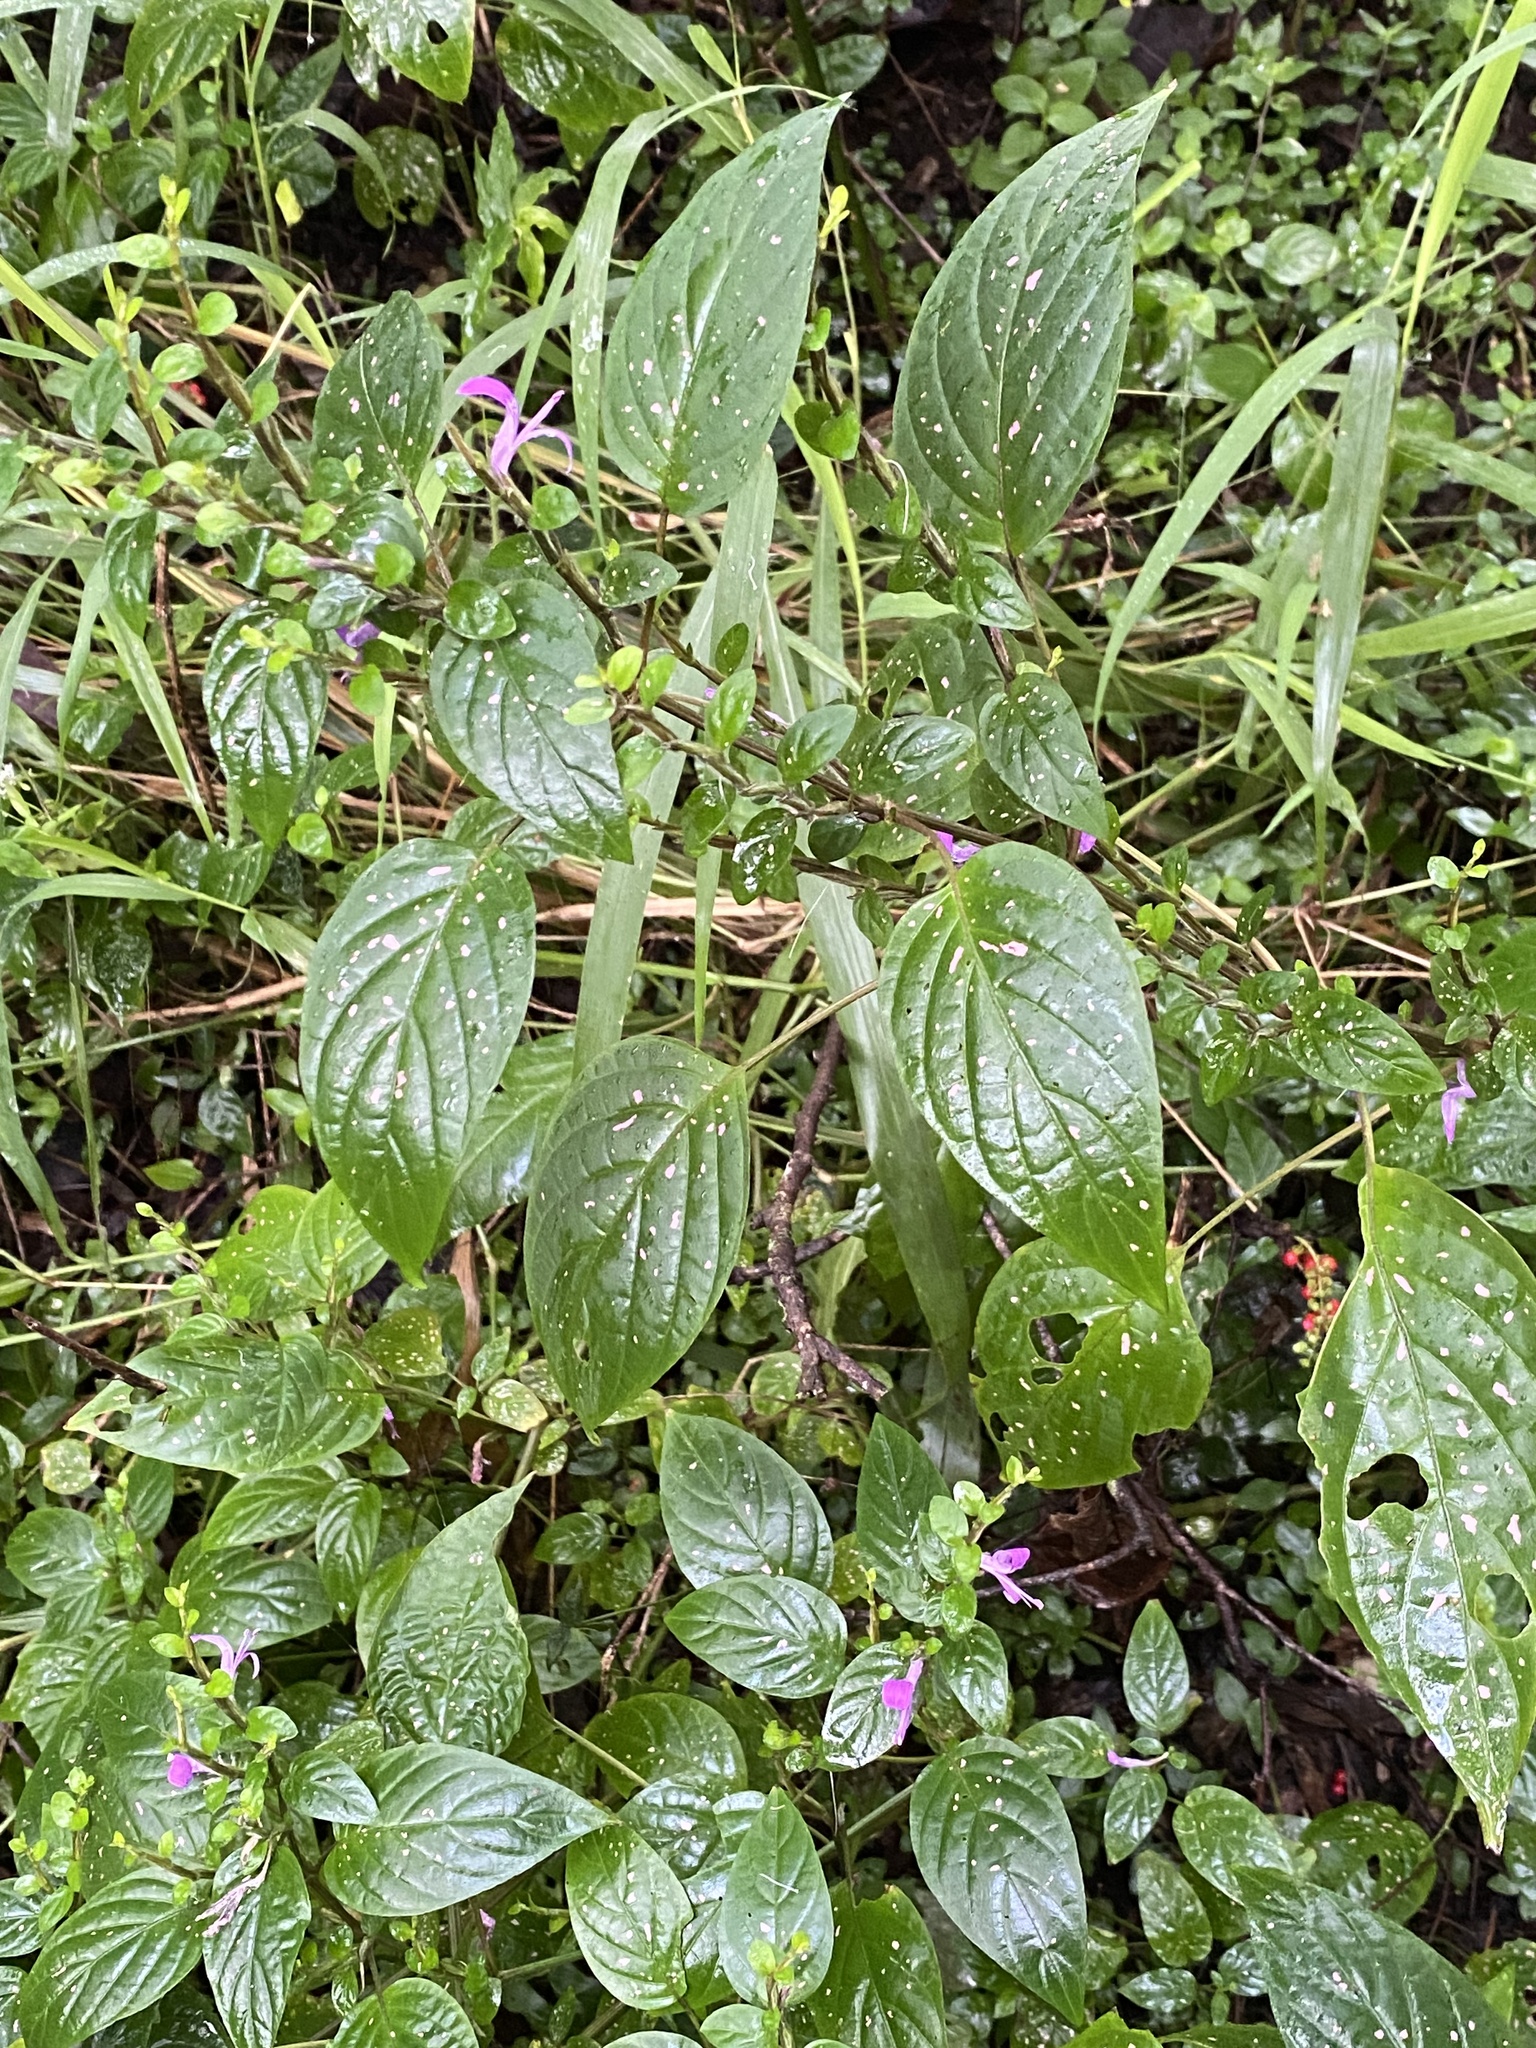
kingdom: Plantae
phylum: Tracheophyta
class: Magnoliopsida
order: Lamiales
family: Acanthaceae
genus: Hypoestes
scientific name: Hypoestes phyllostachya
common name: Polkadot-plant
